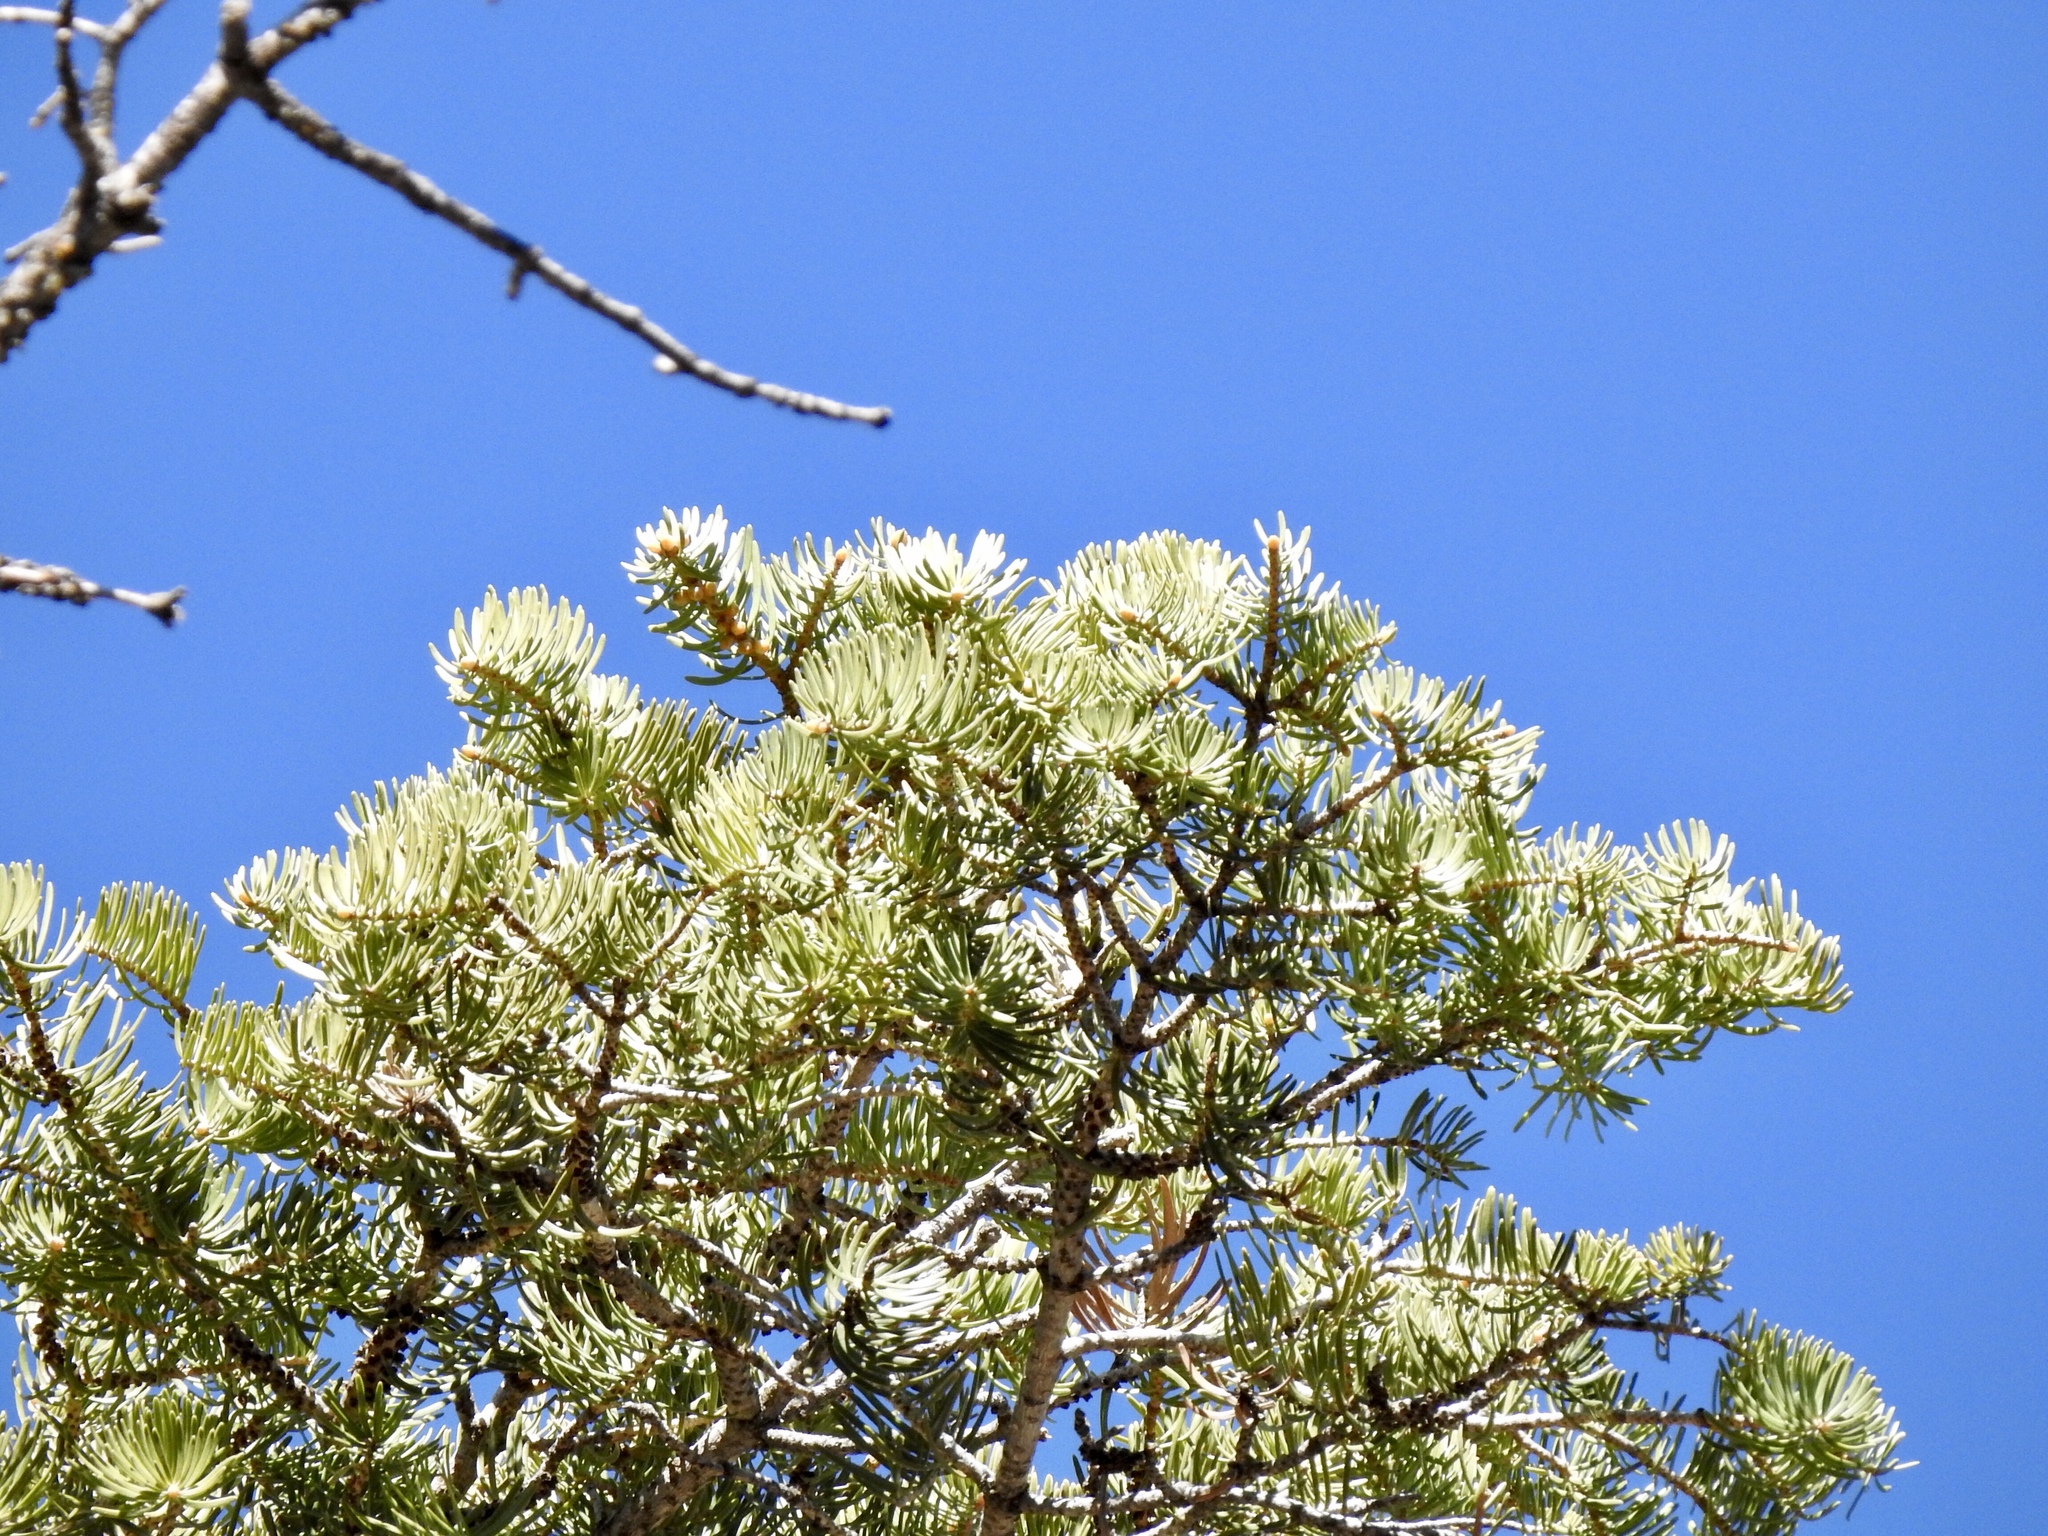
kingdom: Plantae
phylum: Tracheophyta
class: Pinopsida
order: Pinales
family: Pinaceae
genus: Abies
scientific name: Abies concolor
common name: Colorado fir
